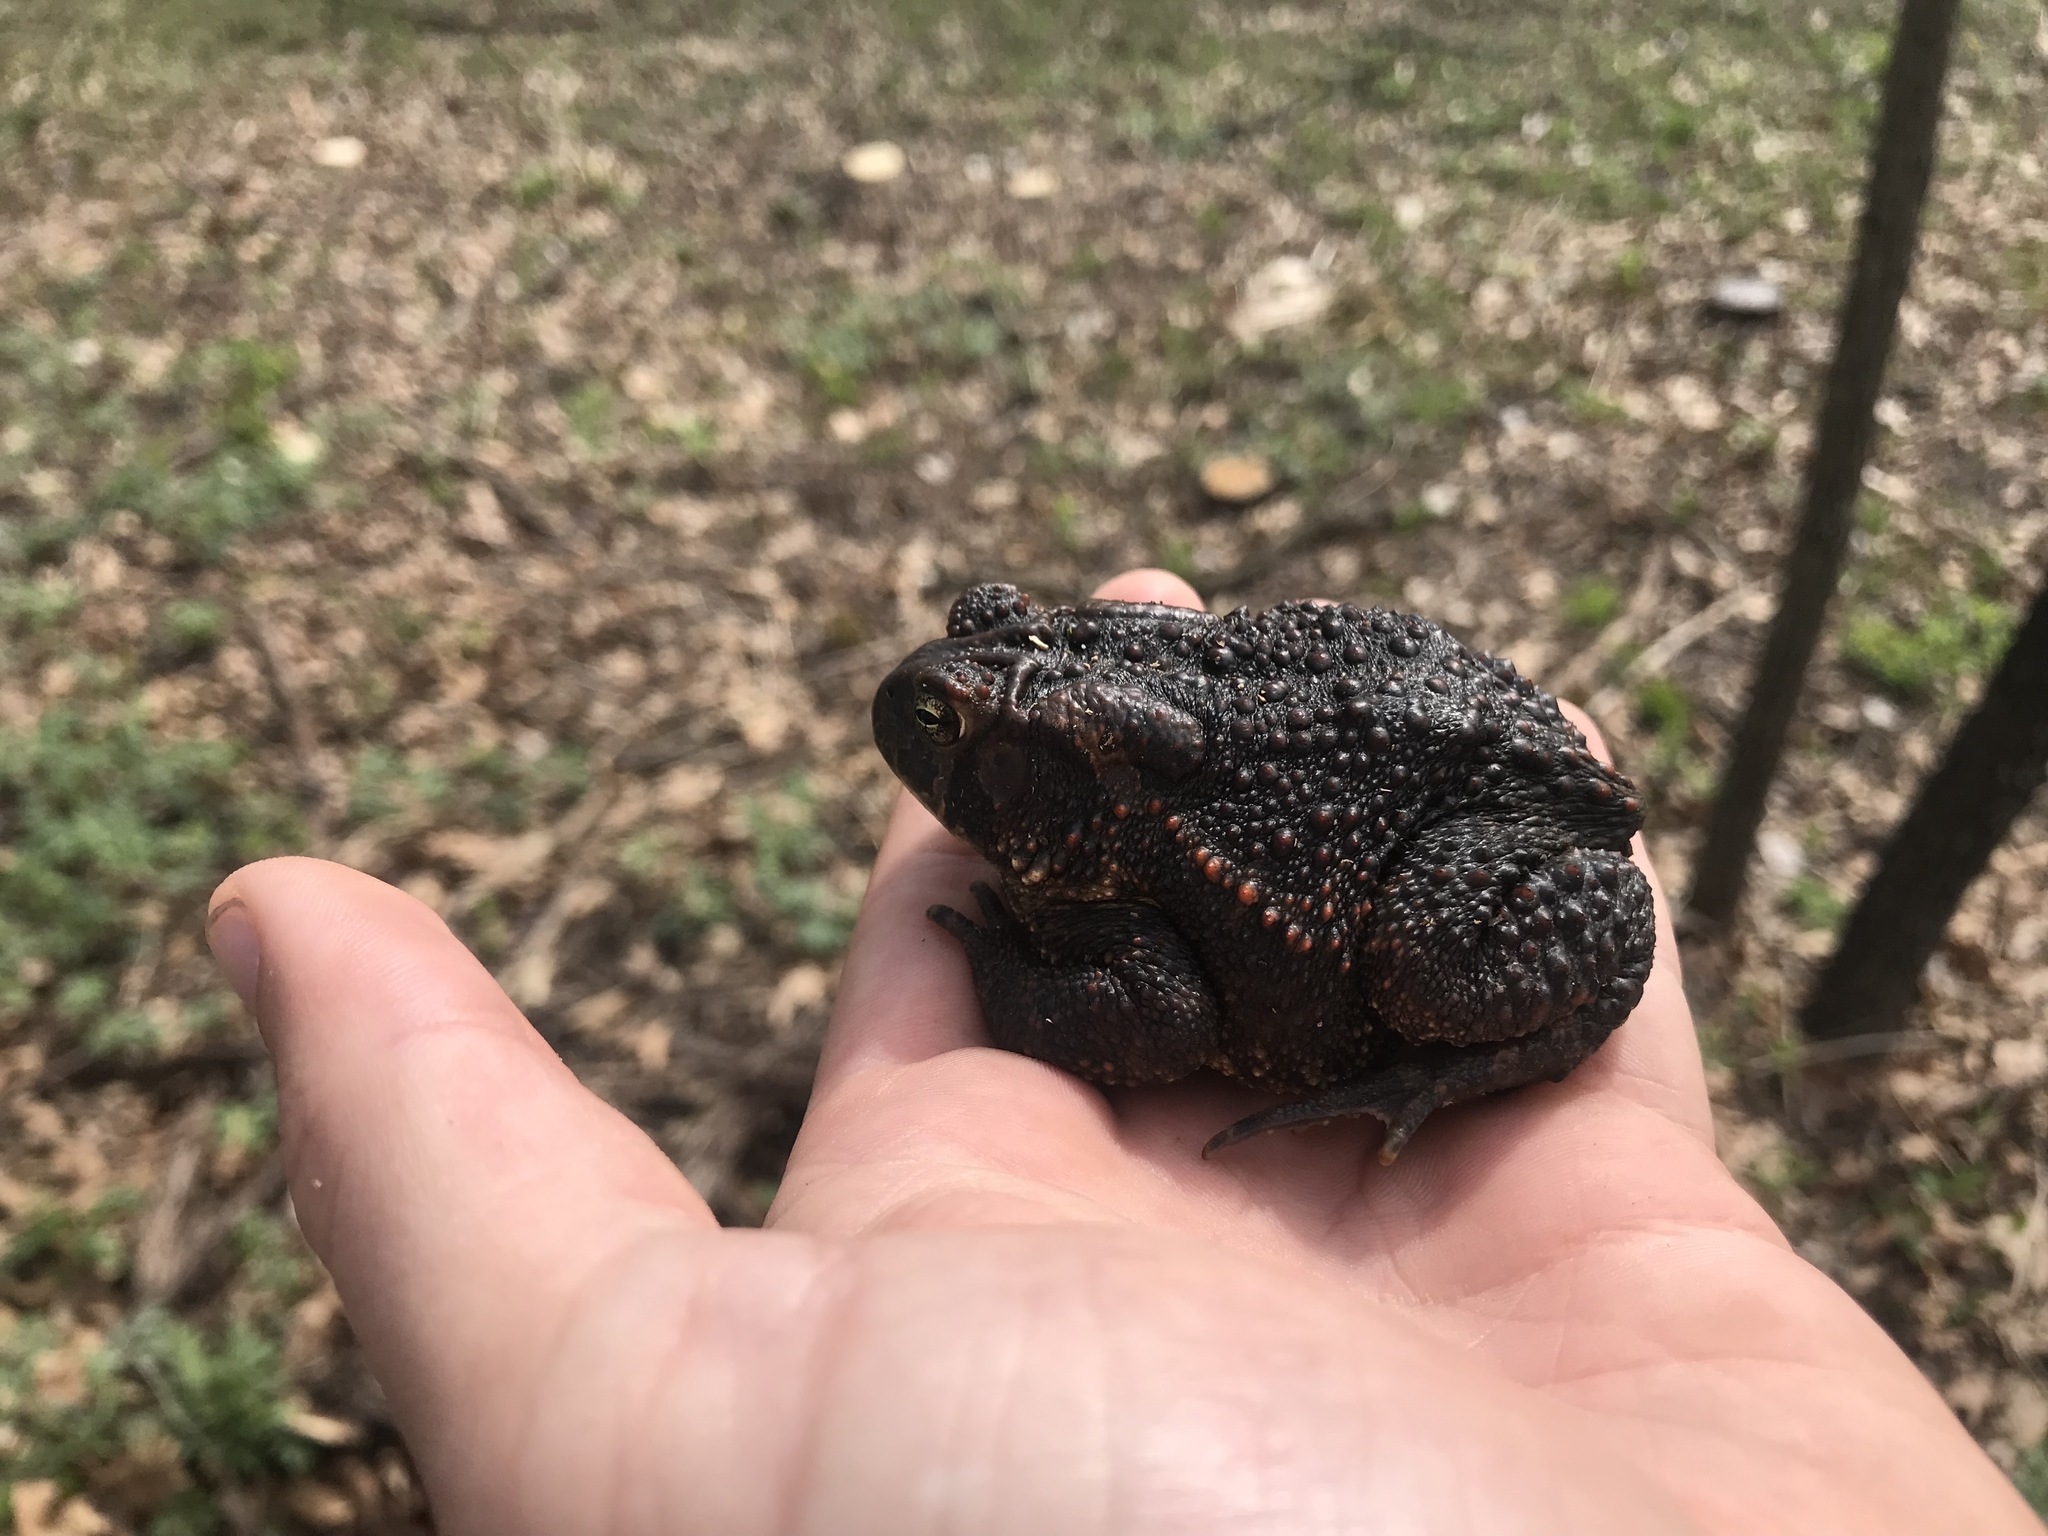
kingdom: Animalia
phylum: Chordata
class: Amphibia
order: Anura
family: Bufonidae
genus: Anaxyrus
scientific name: Anaxyrus americanus
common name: American toad
